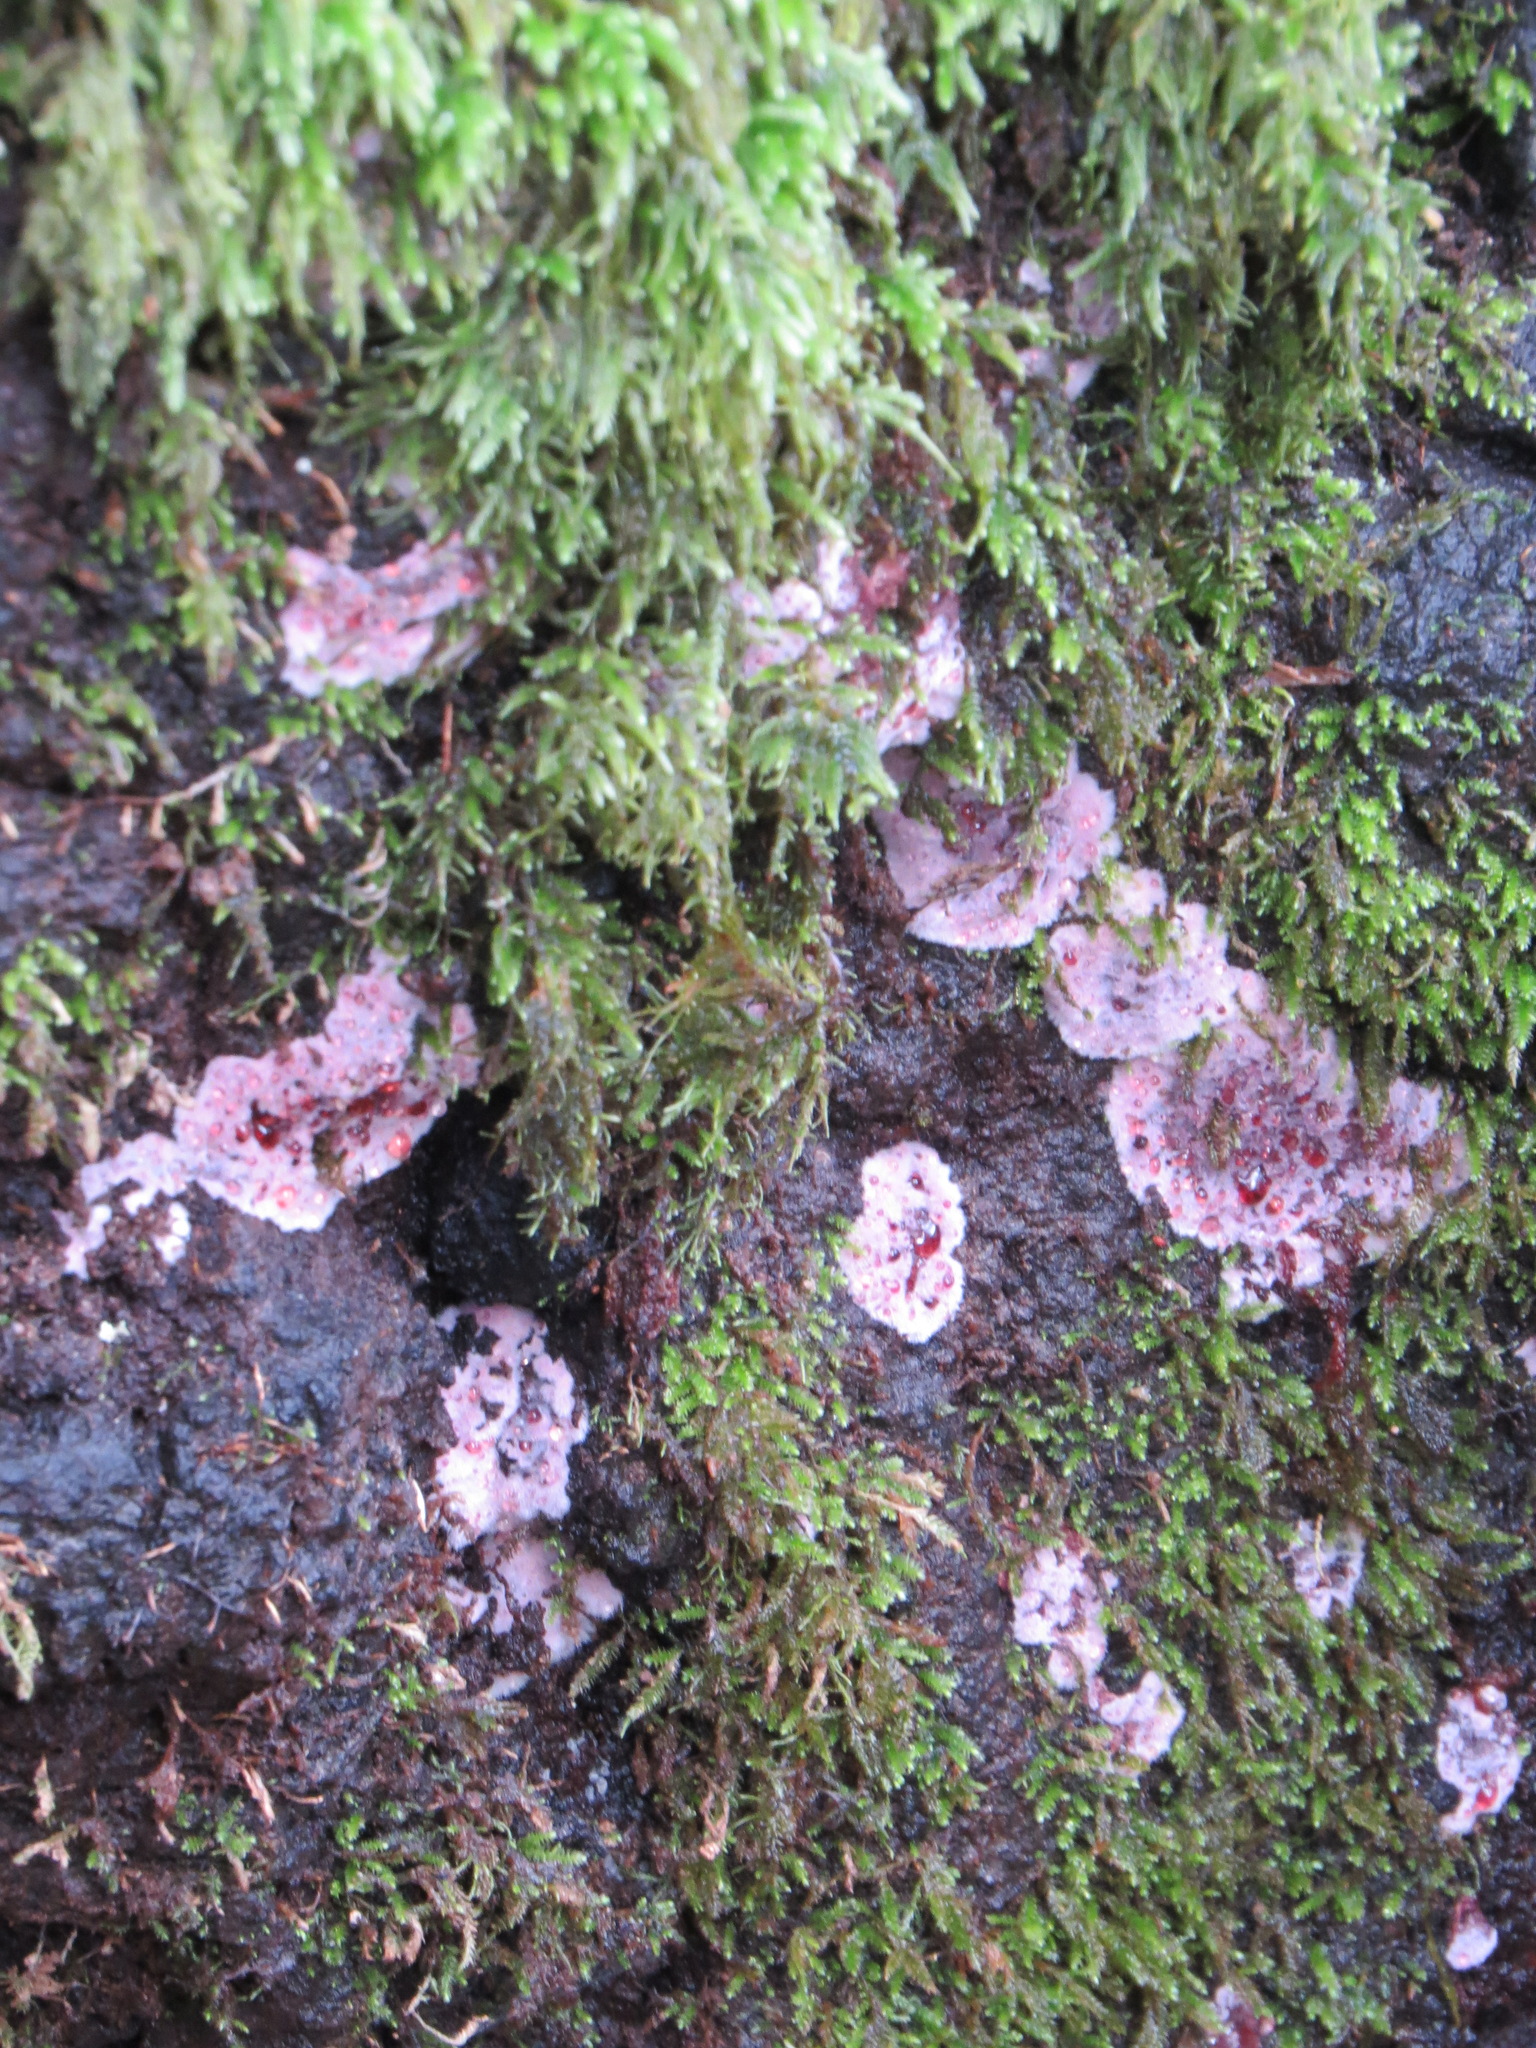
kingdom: Fungi
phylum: Basidiomycota
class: Agaricomycetes
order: Corticiales
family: Punctulariaceae
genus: Punctularia
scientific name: Punctularia atropurpurascens
